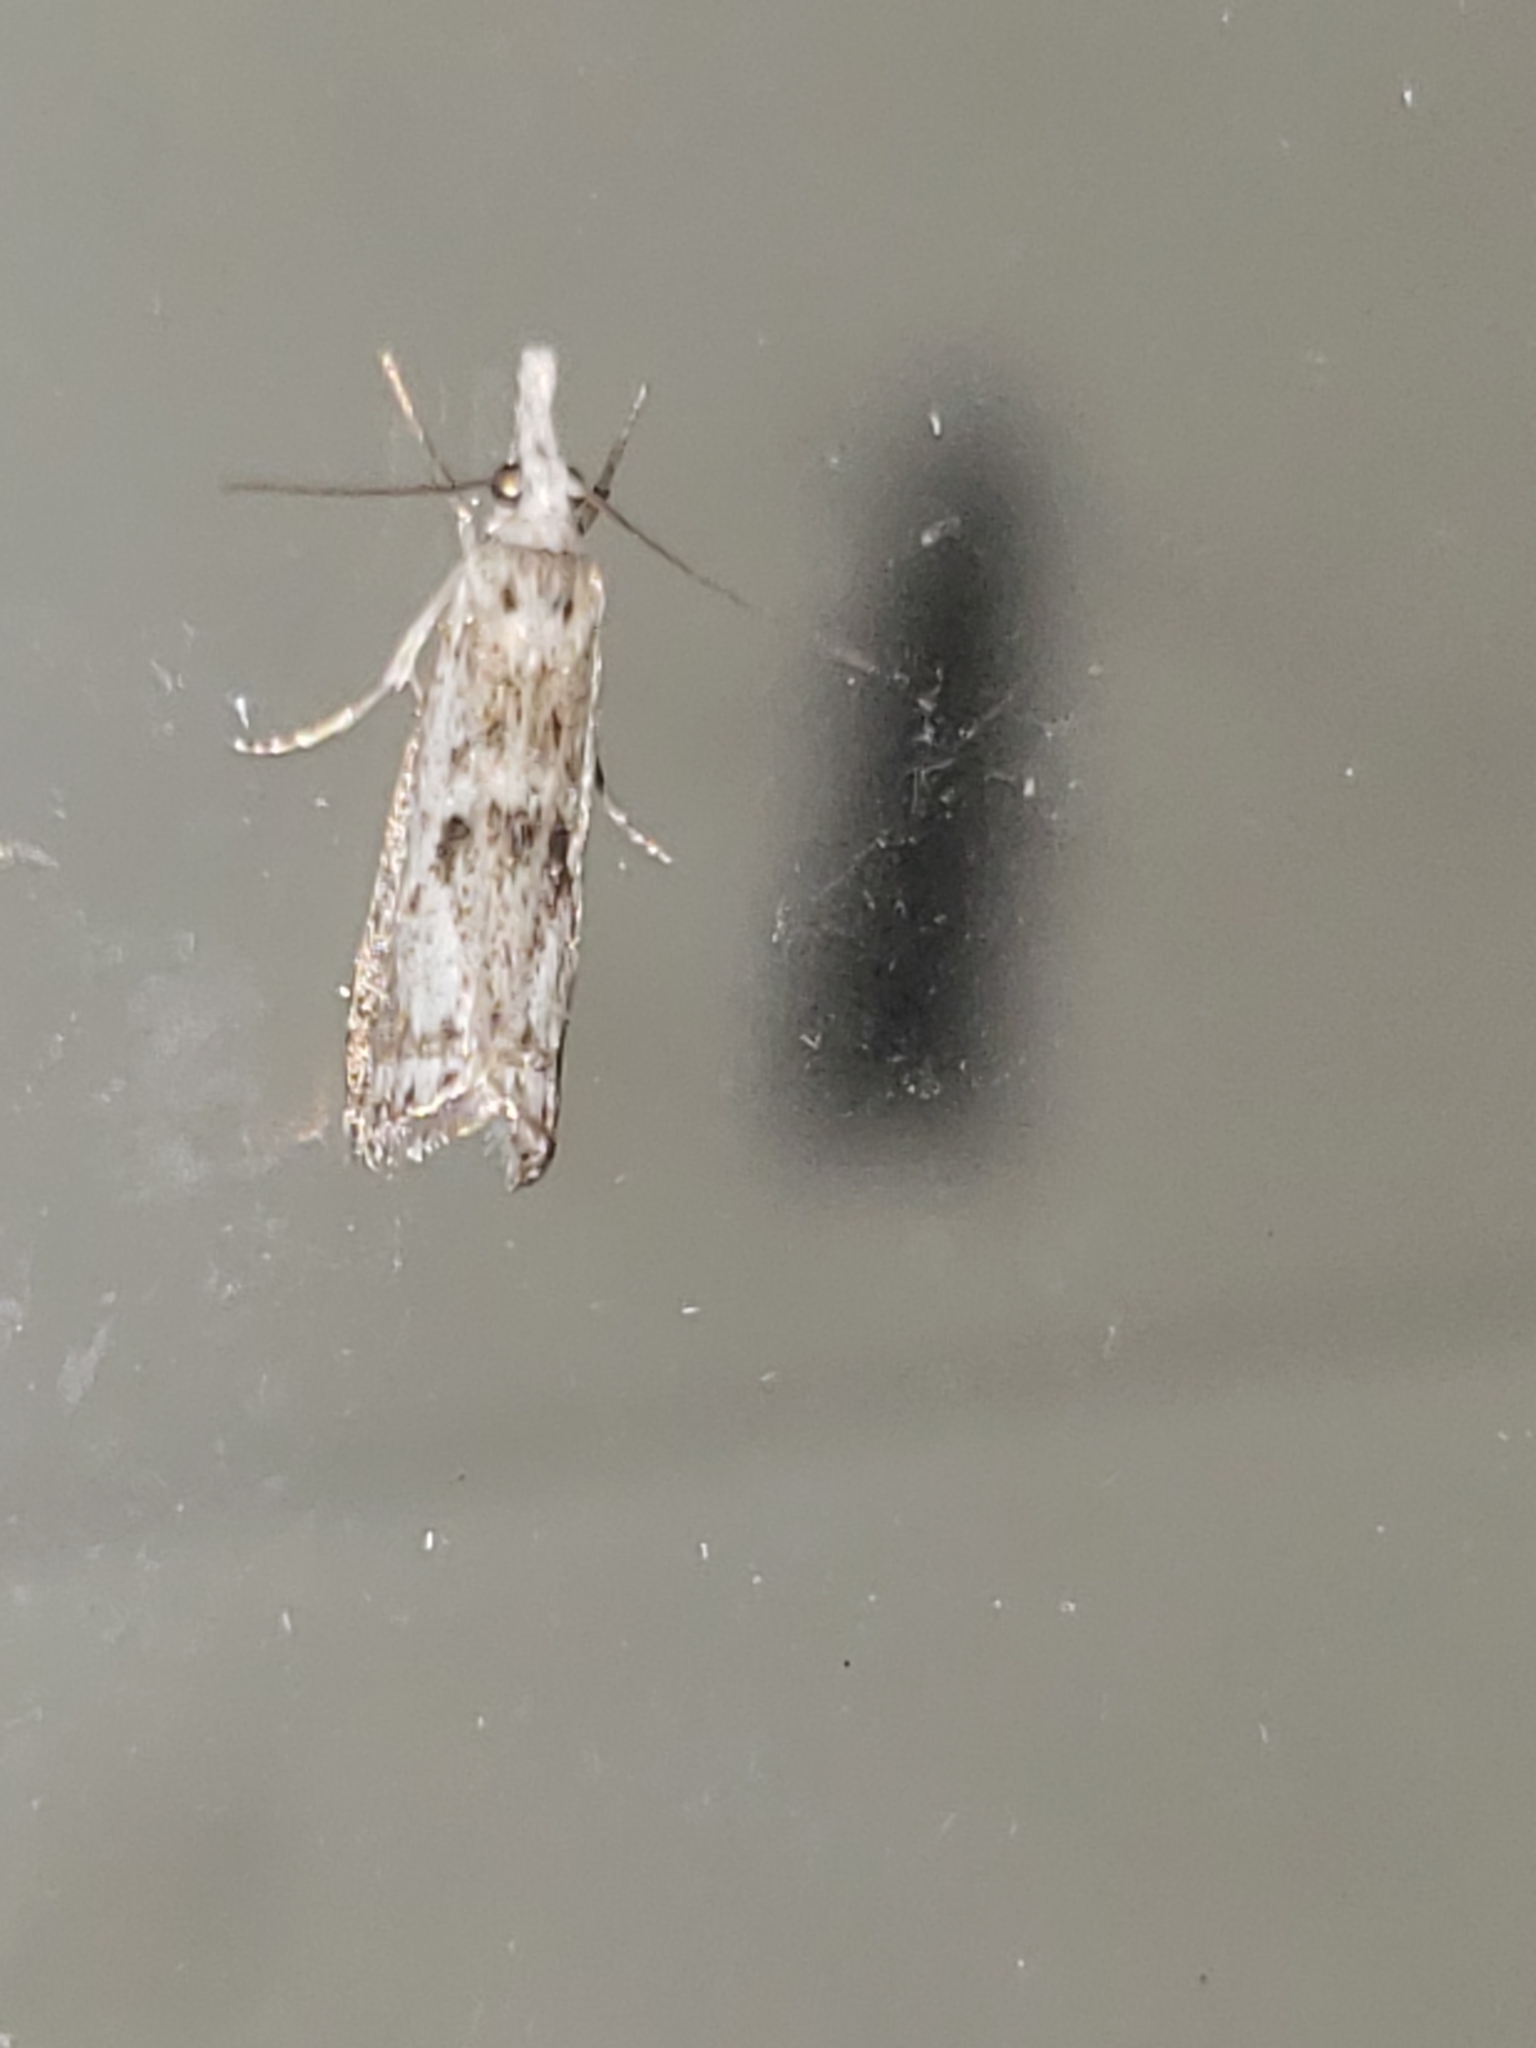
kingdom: Animalia
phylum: Arthropoda
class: Insecta
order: Lepidoptera
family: Crambidae
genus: Microcrambus
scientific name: Microcrambus elegans
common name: Elegant grass-veneer
